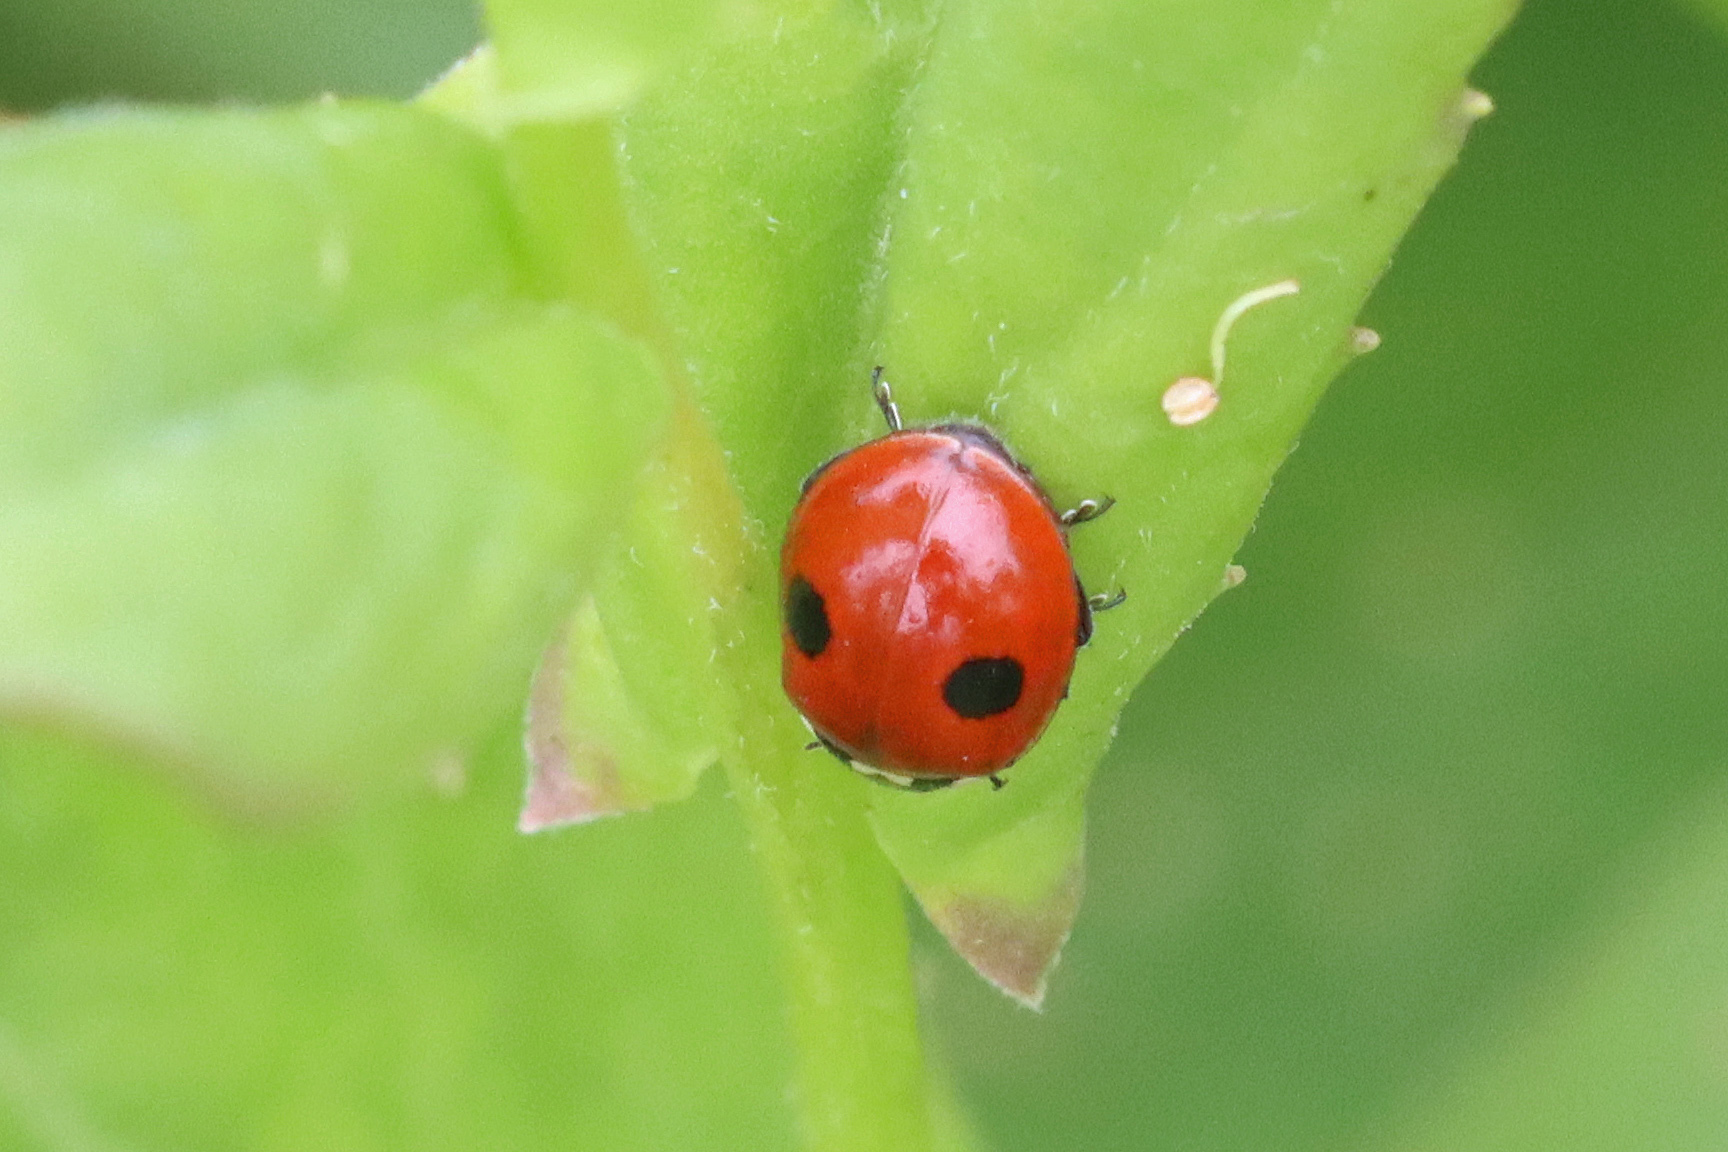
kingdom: Animalia
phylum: Arthropoda
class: Insecta
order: Coleoptera
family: Coccinellidae
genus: Adalia
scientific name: Adalia bipunctata
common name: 2-spot ladybird
